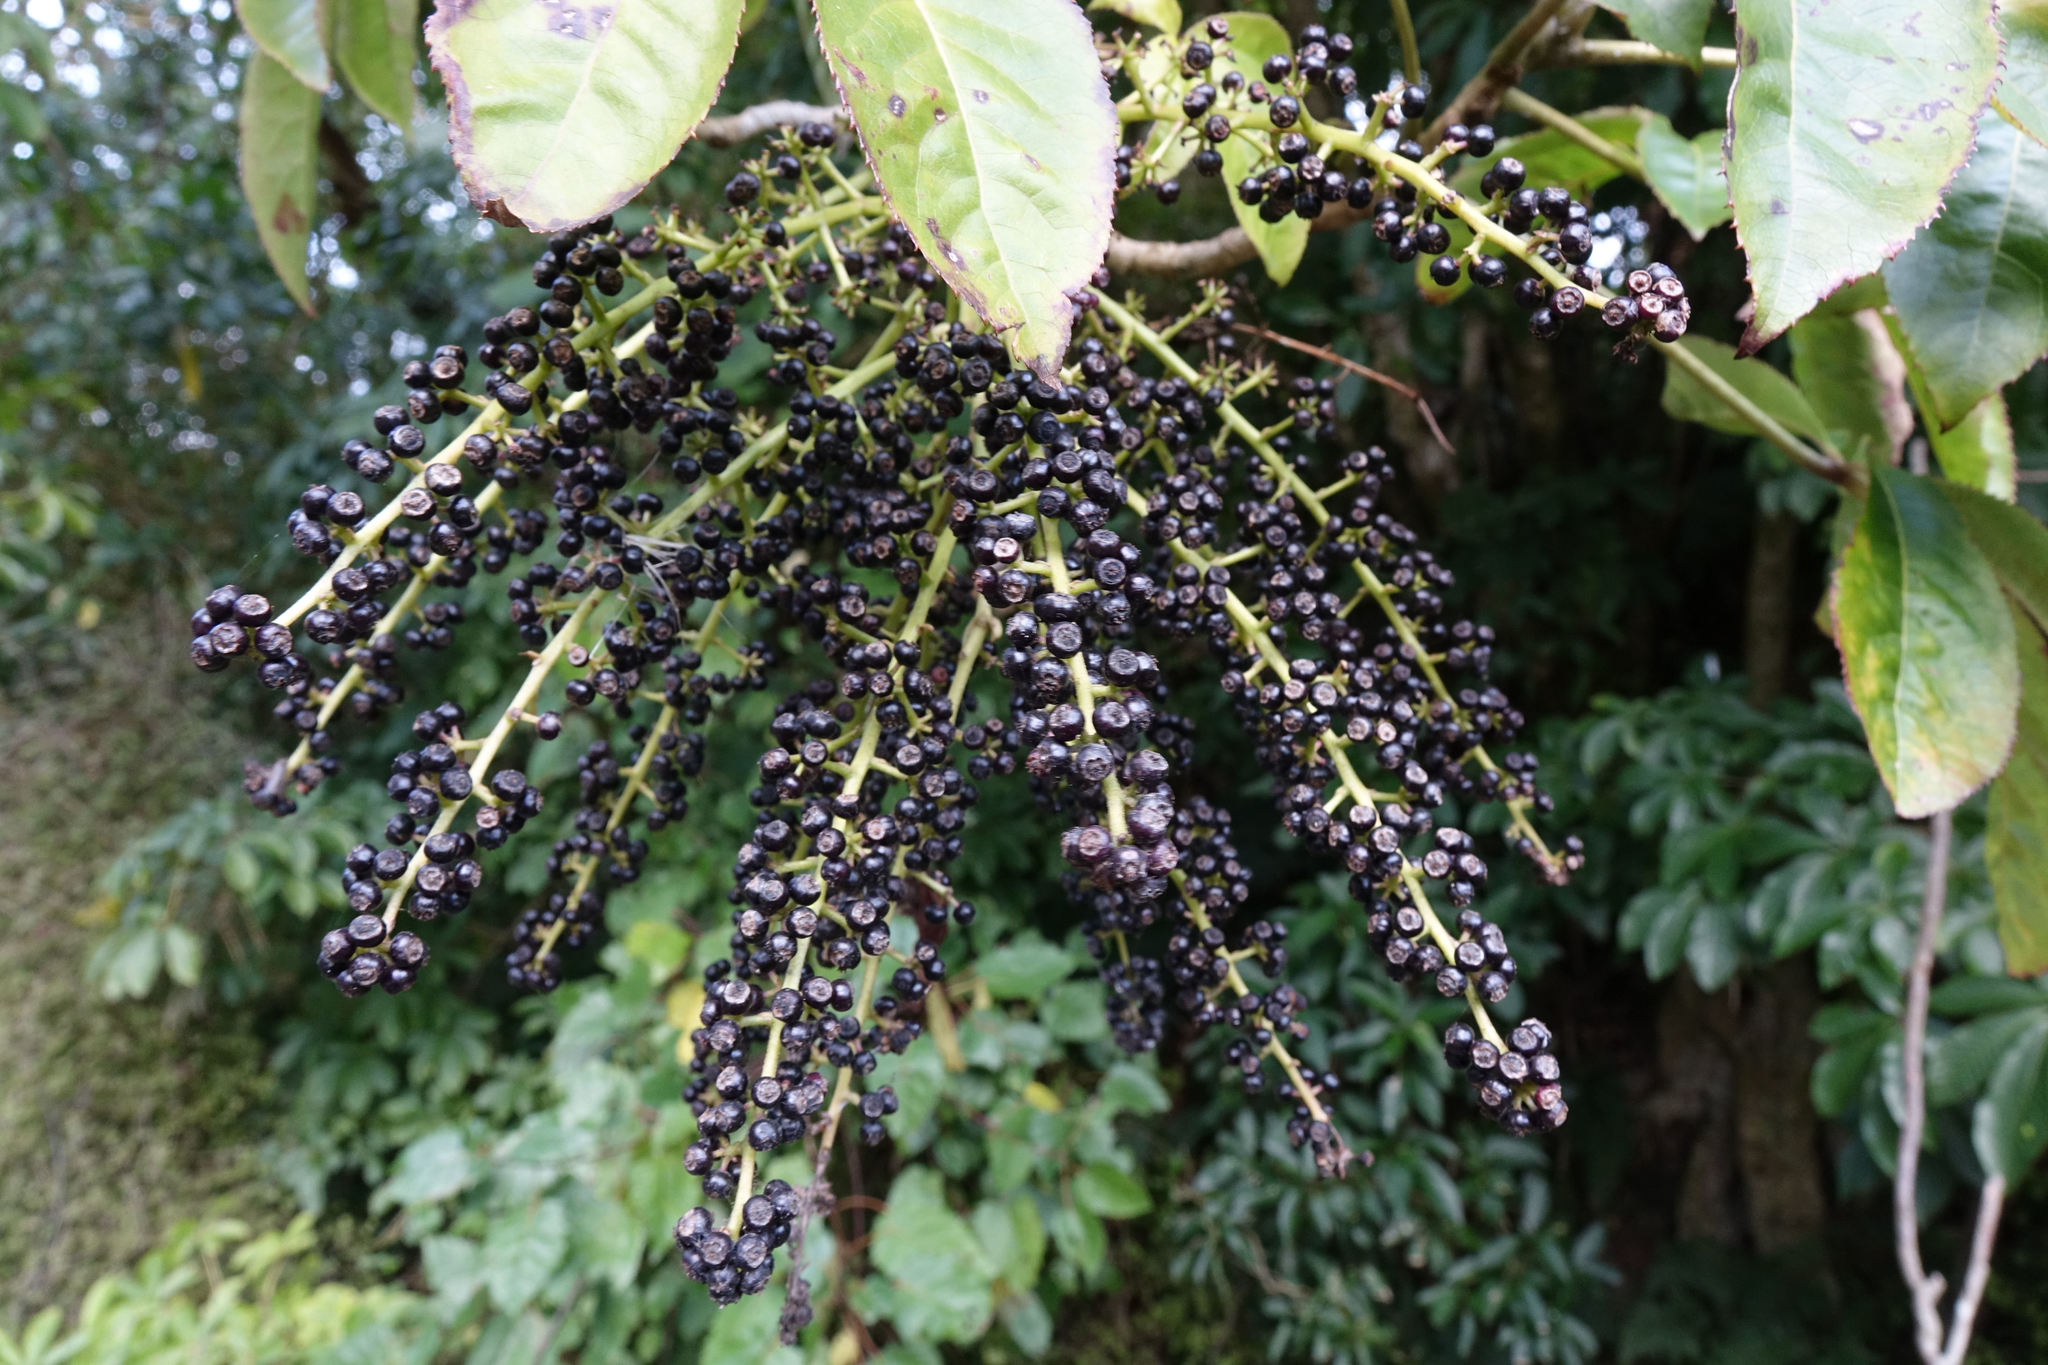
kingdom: Plantae
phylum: Tracheophyta
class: Magnoliopsida
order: Apiales
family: Araliaceae
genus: Schefflera
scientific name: Schefflera digitata
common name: Pate
